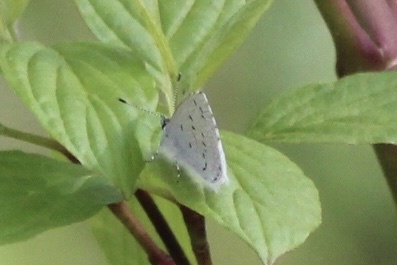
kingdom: Animalia
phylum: Arthropoda
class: Insecta
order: Lepidoptera
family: Lycaenidae
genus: Celastrina
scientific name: Celastrina ladon
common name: Spring azure
